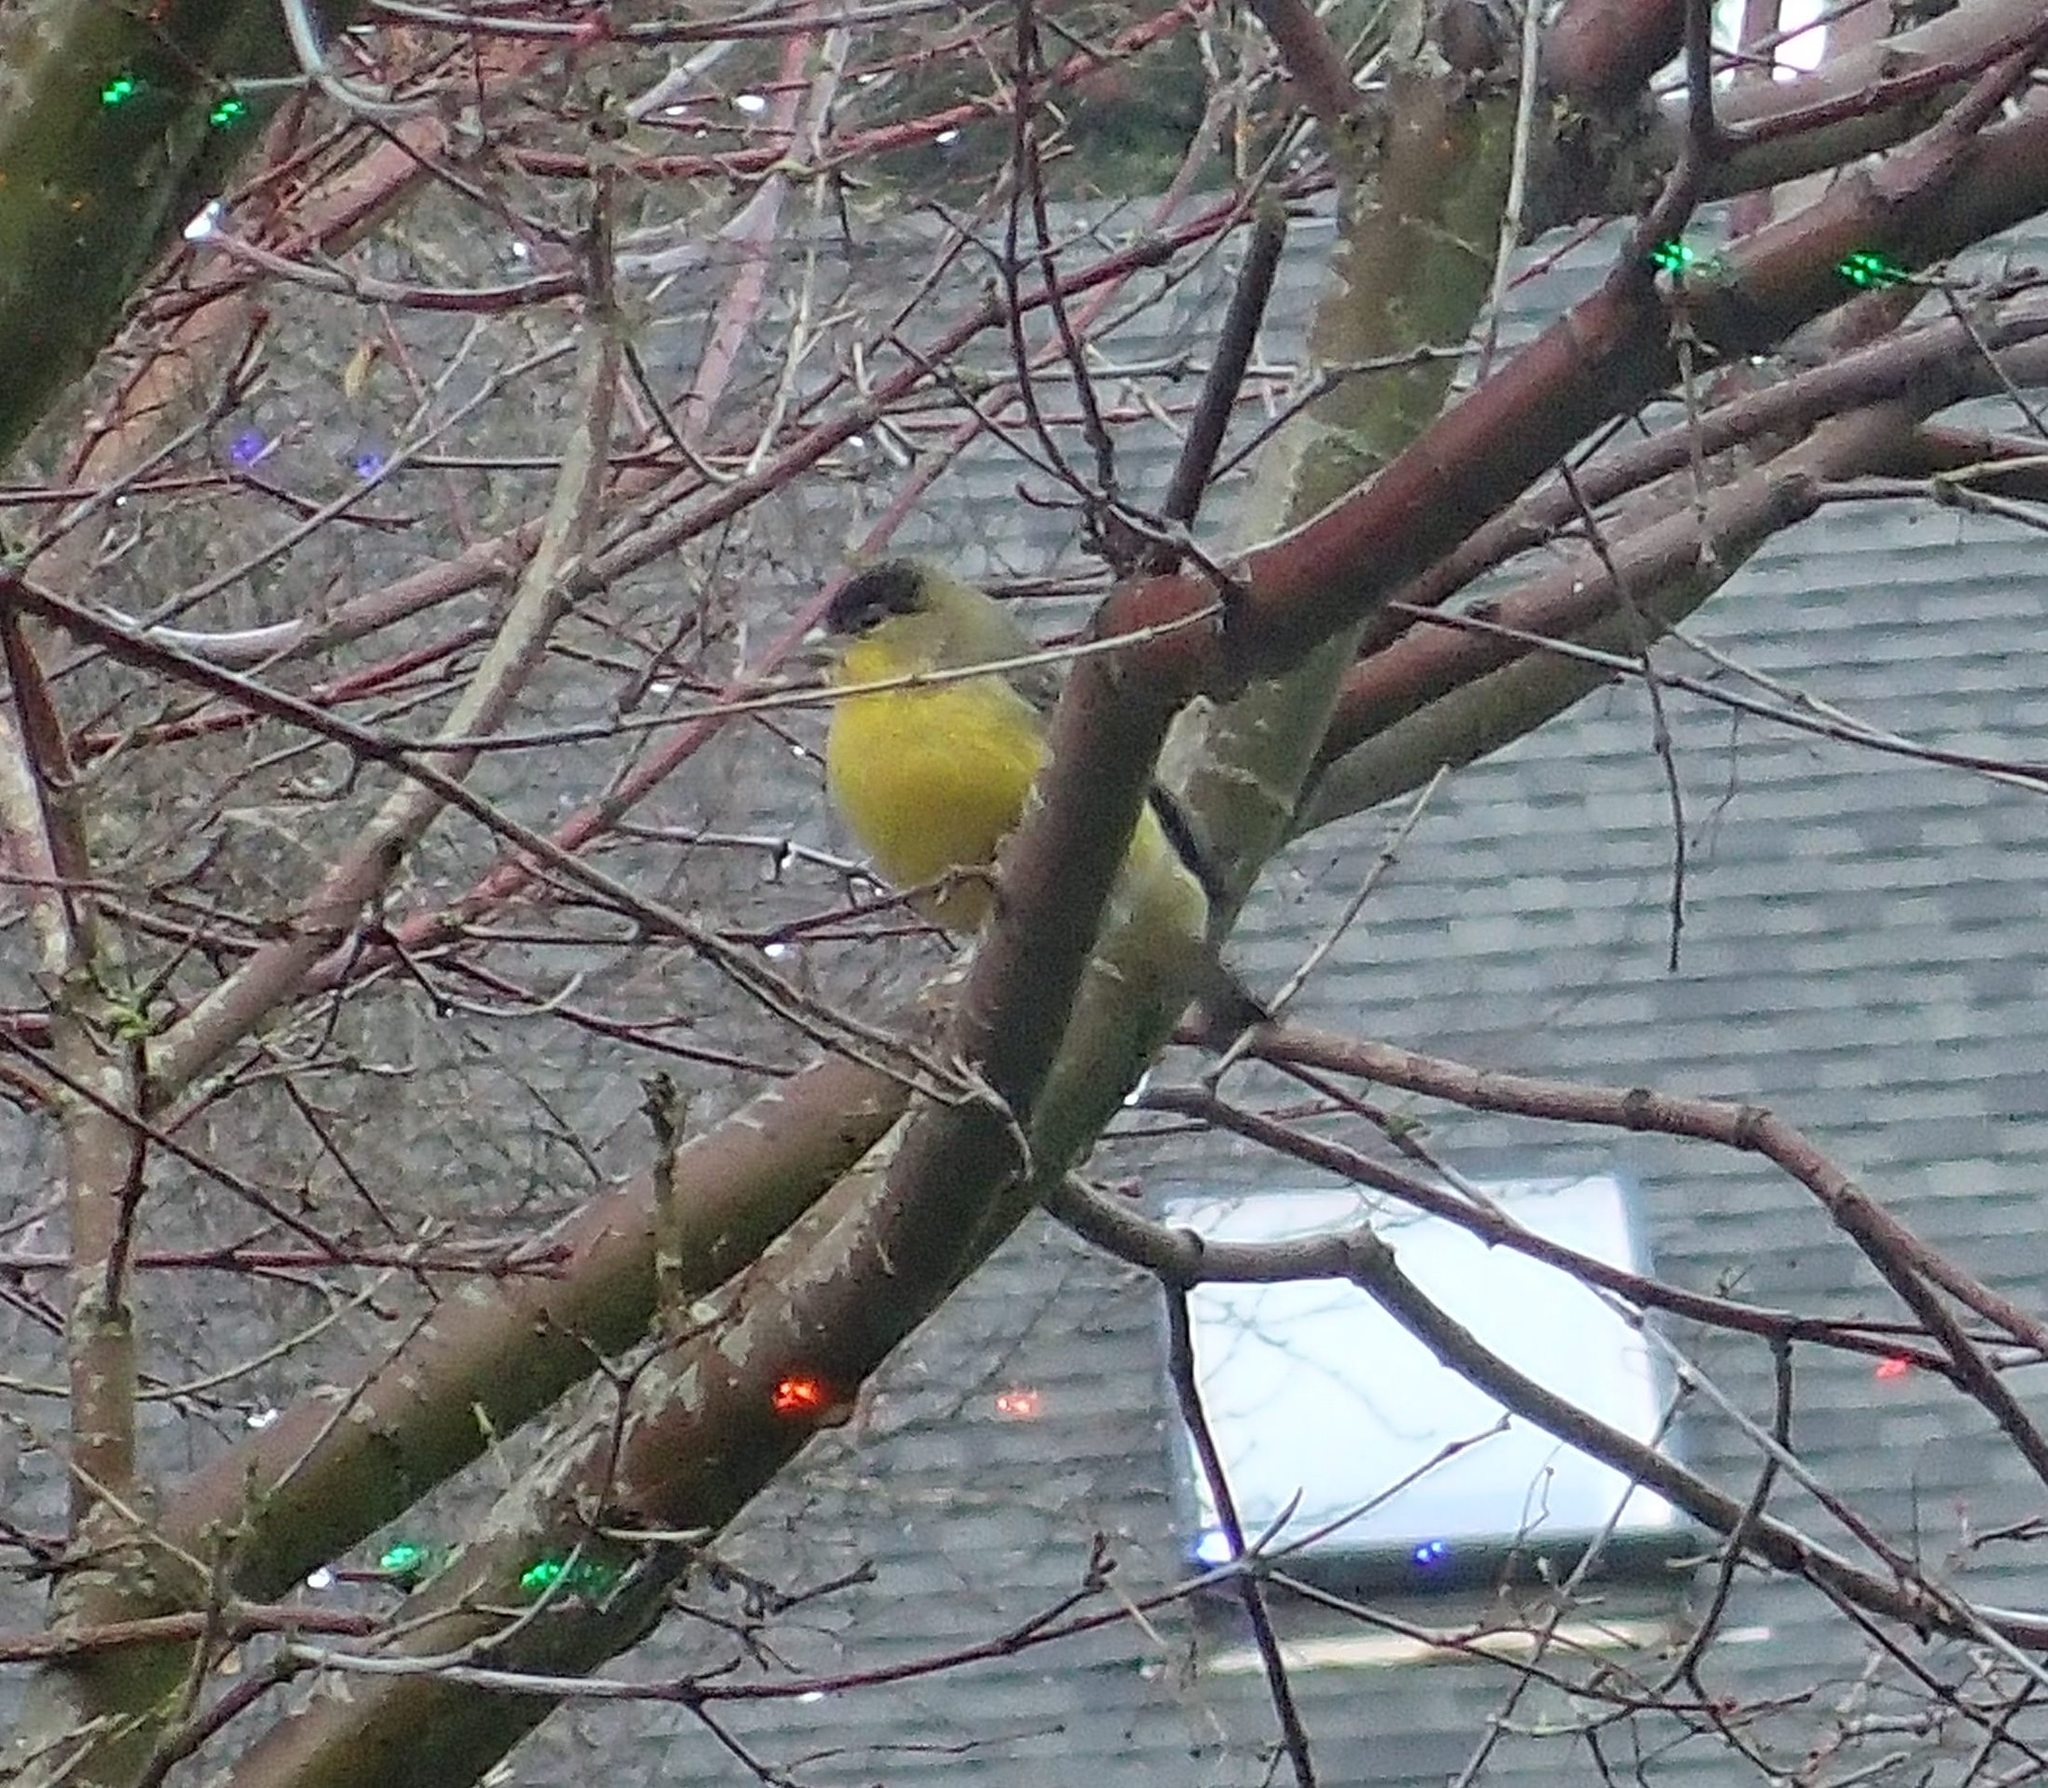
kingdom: Animalia
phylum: Chordata
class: Aves
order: Passeriformes
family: Fringillidae
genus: Spinus
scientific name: Spinus psaltria
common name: Lesser goldfinch
